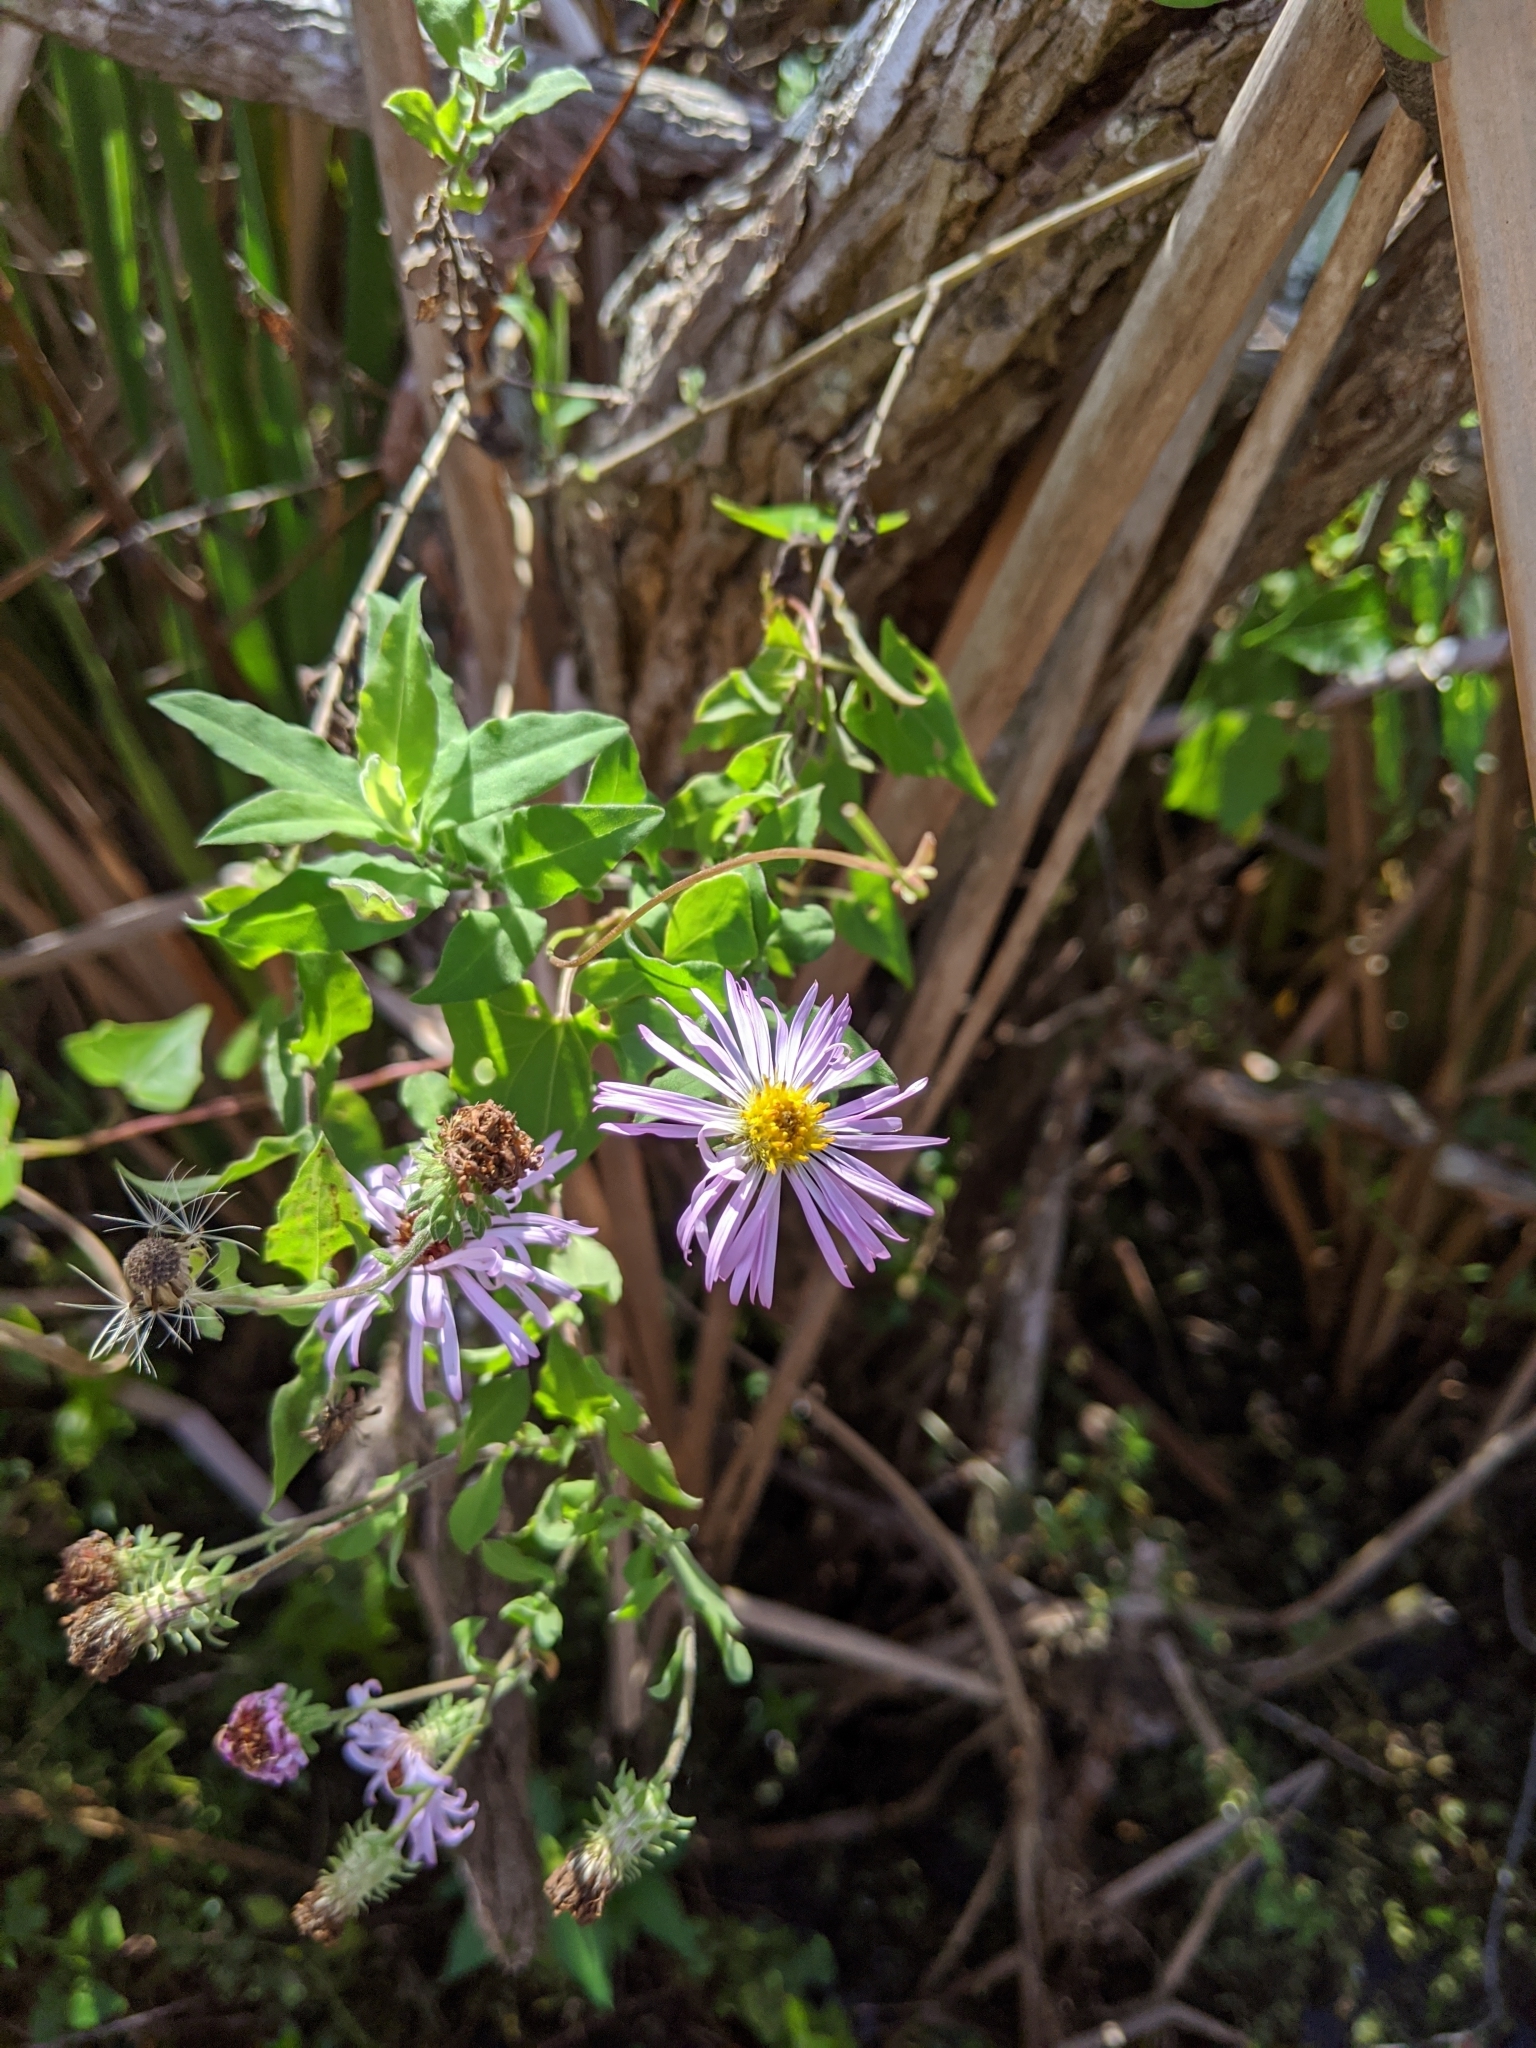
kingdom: Plantae
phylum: Tracheophyta
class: Magnoliopsida
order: Asterales
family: Asteraceae
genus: Ampelaster
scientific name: Ampelaster carolinianus
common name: Climbing aster
